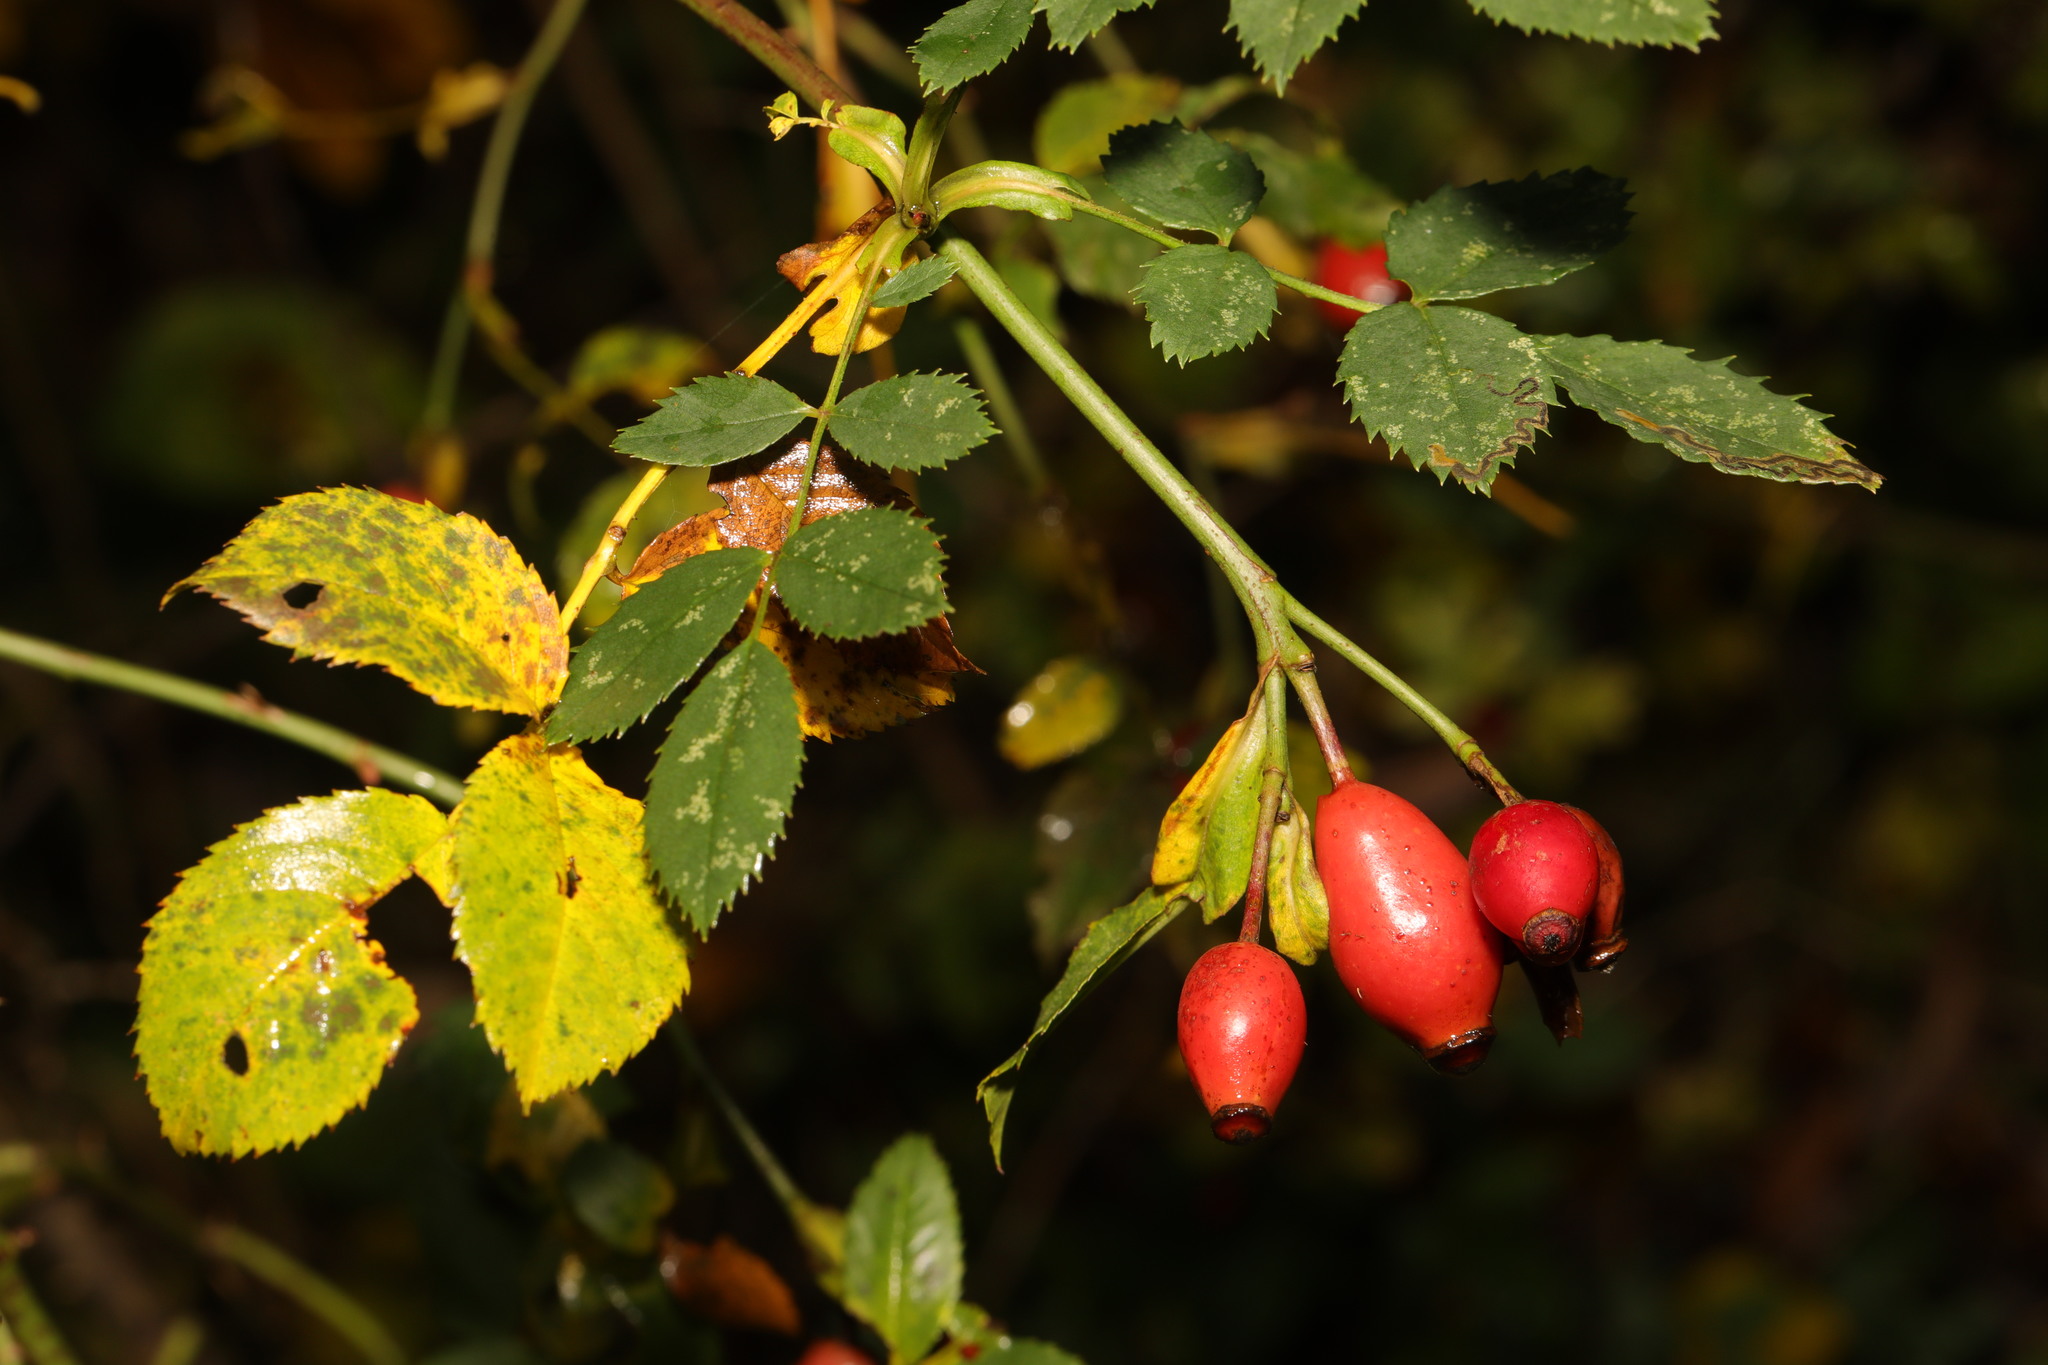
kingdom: Plantae
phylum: Tracheophyta
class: Magnoliopsida
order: Rosales
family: Rosaceae
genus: Rosa
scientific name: Rosa canina
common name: Dog rose
